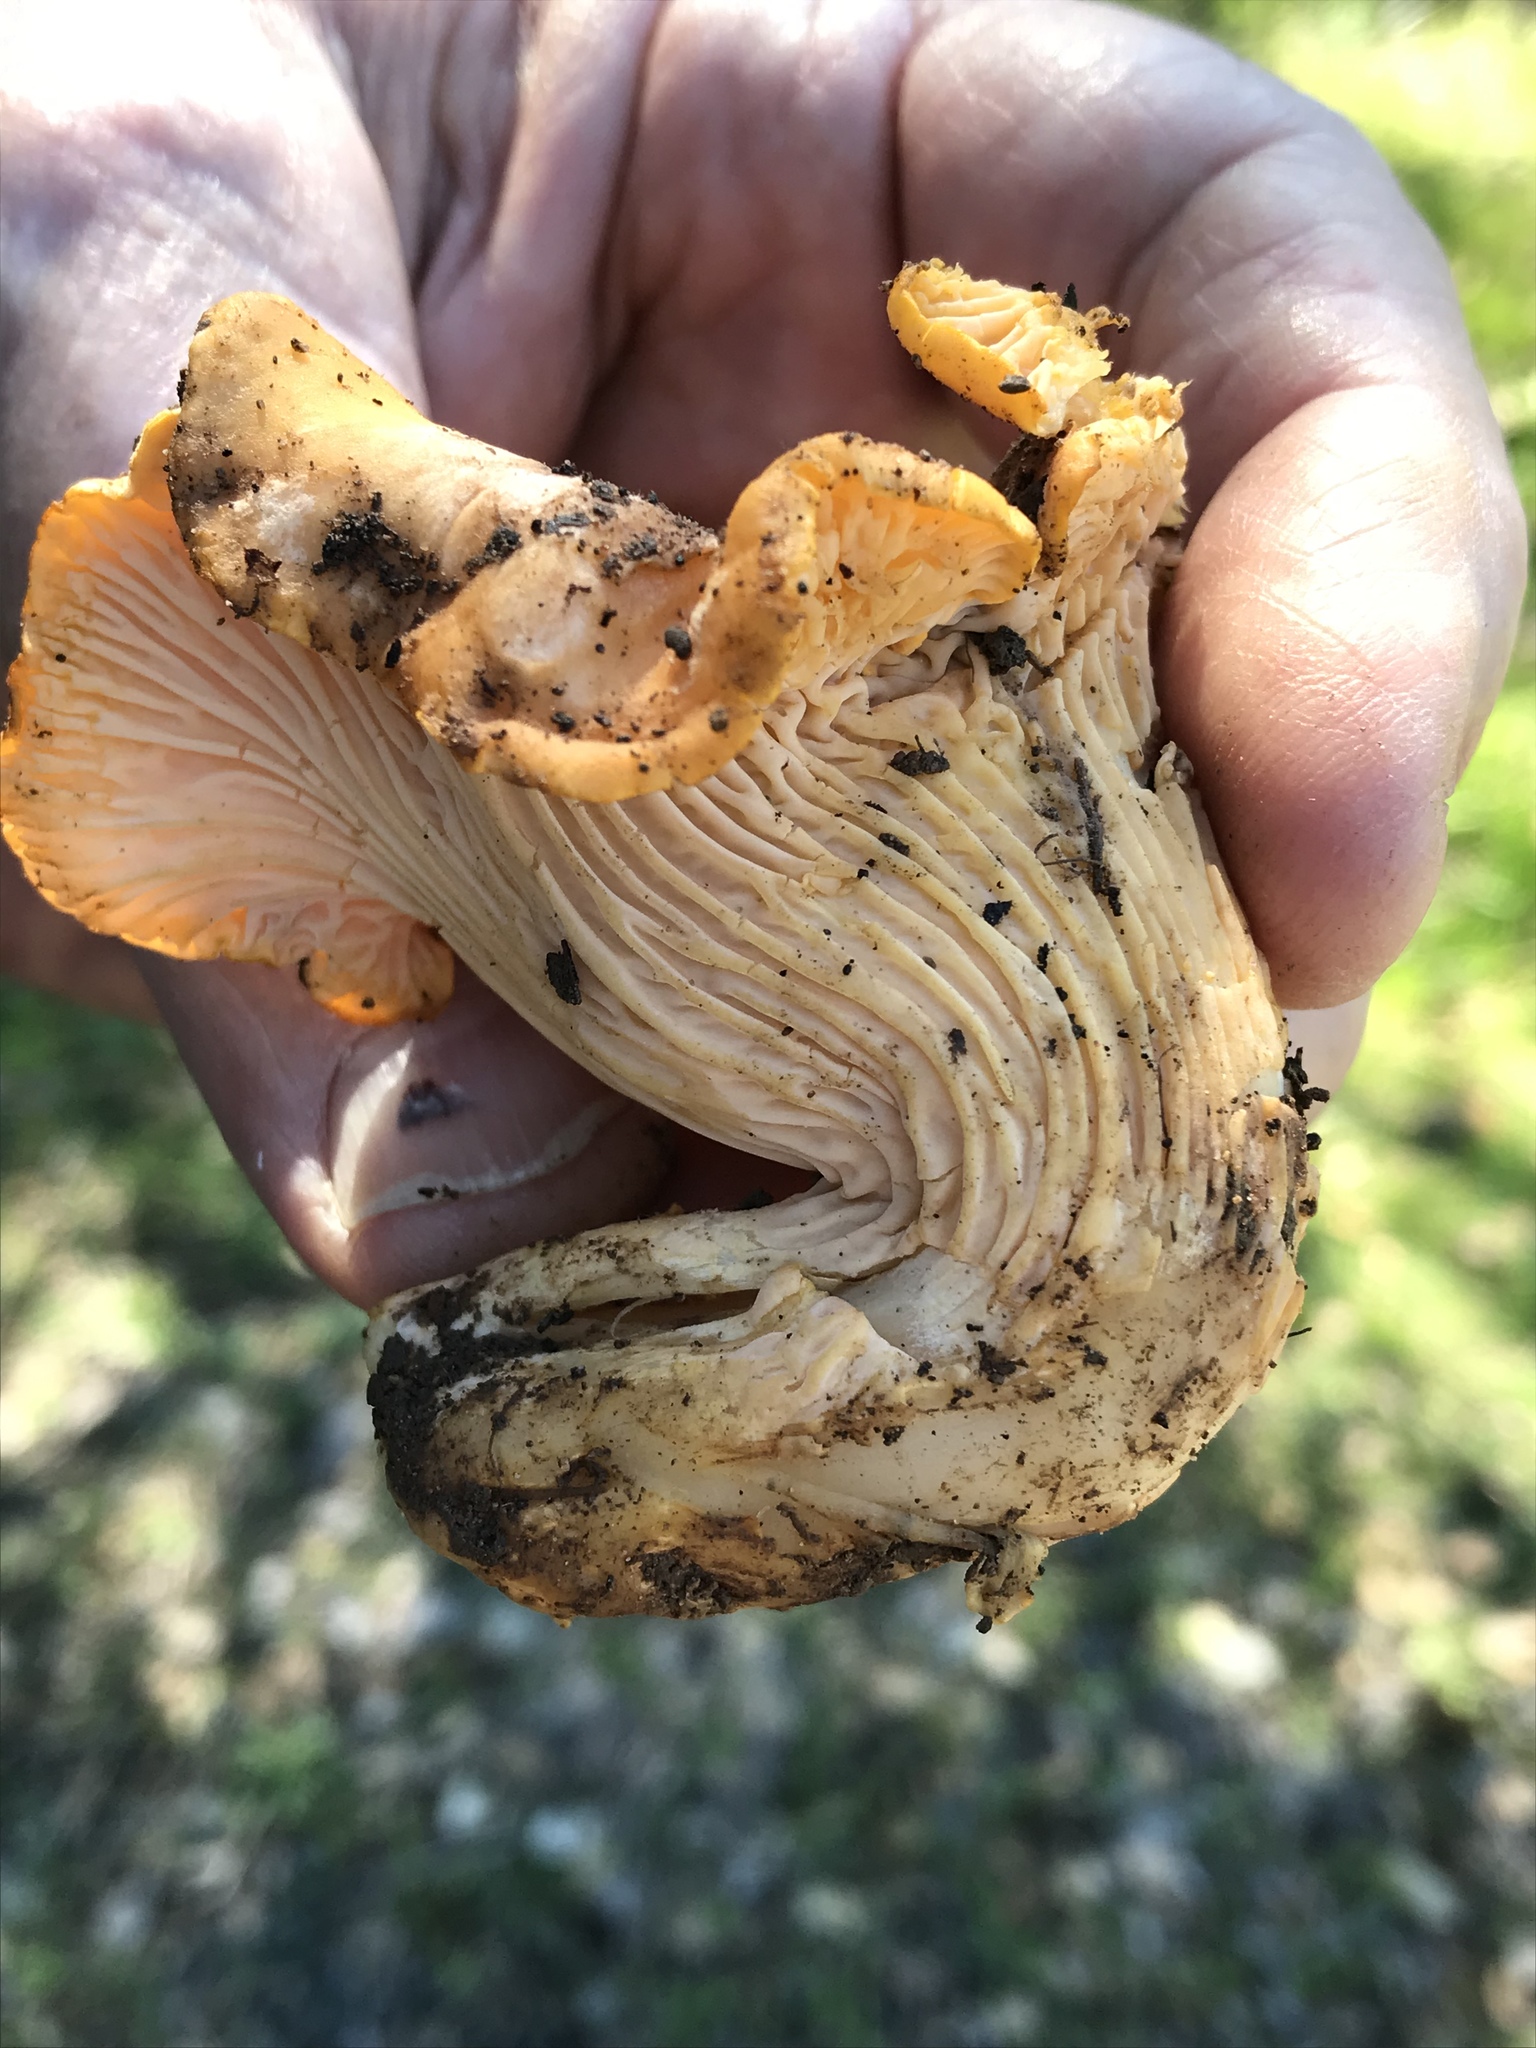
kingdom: Fungi
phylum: Basidiomycota
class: Agaricomycetes
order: Cantharellales
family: Hydnaceae
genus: Cantharellus
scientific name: Cantharellus californicus
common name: California golden chanterelle
